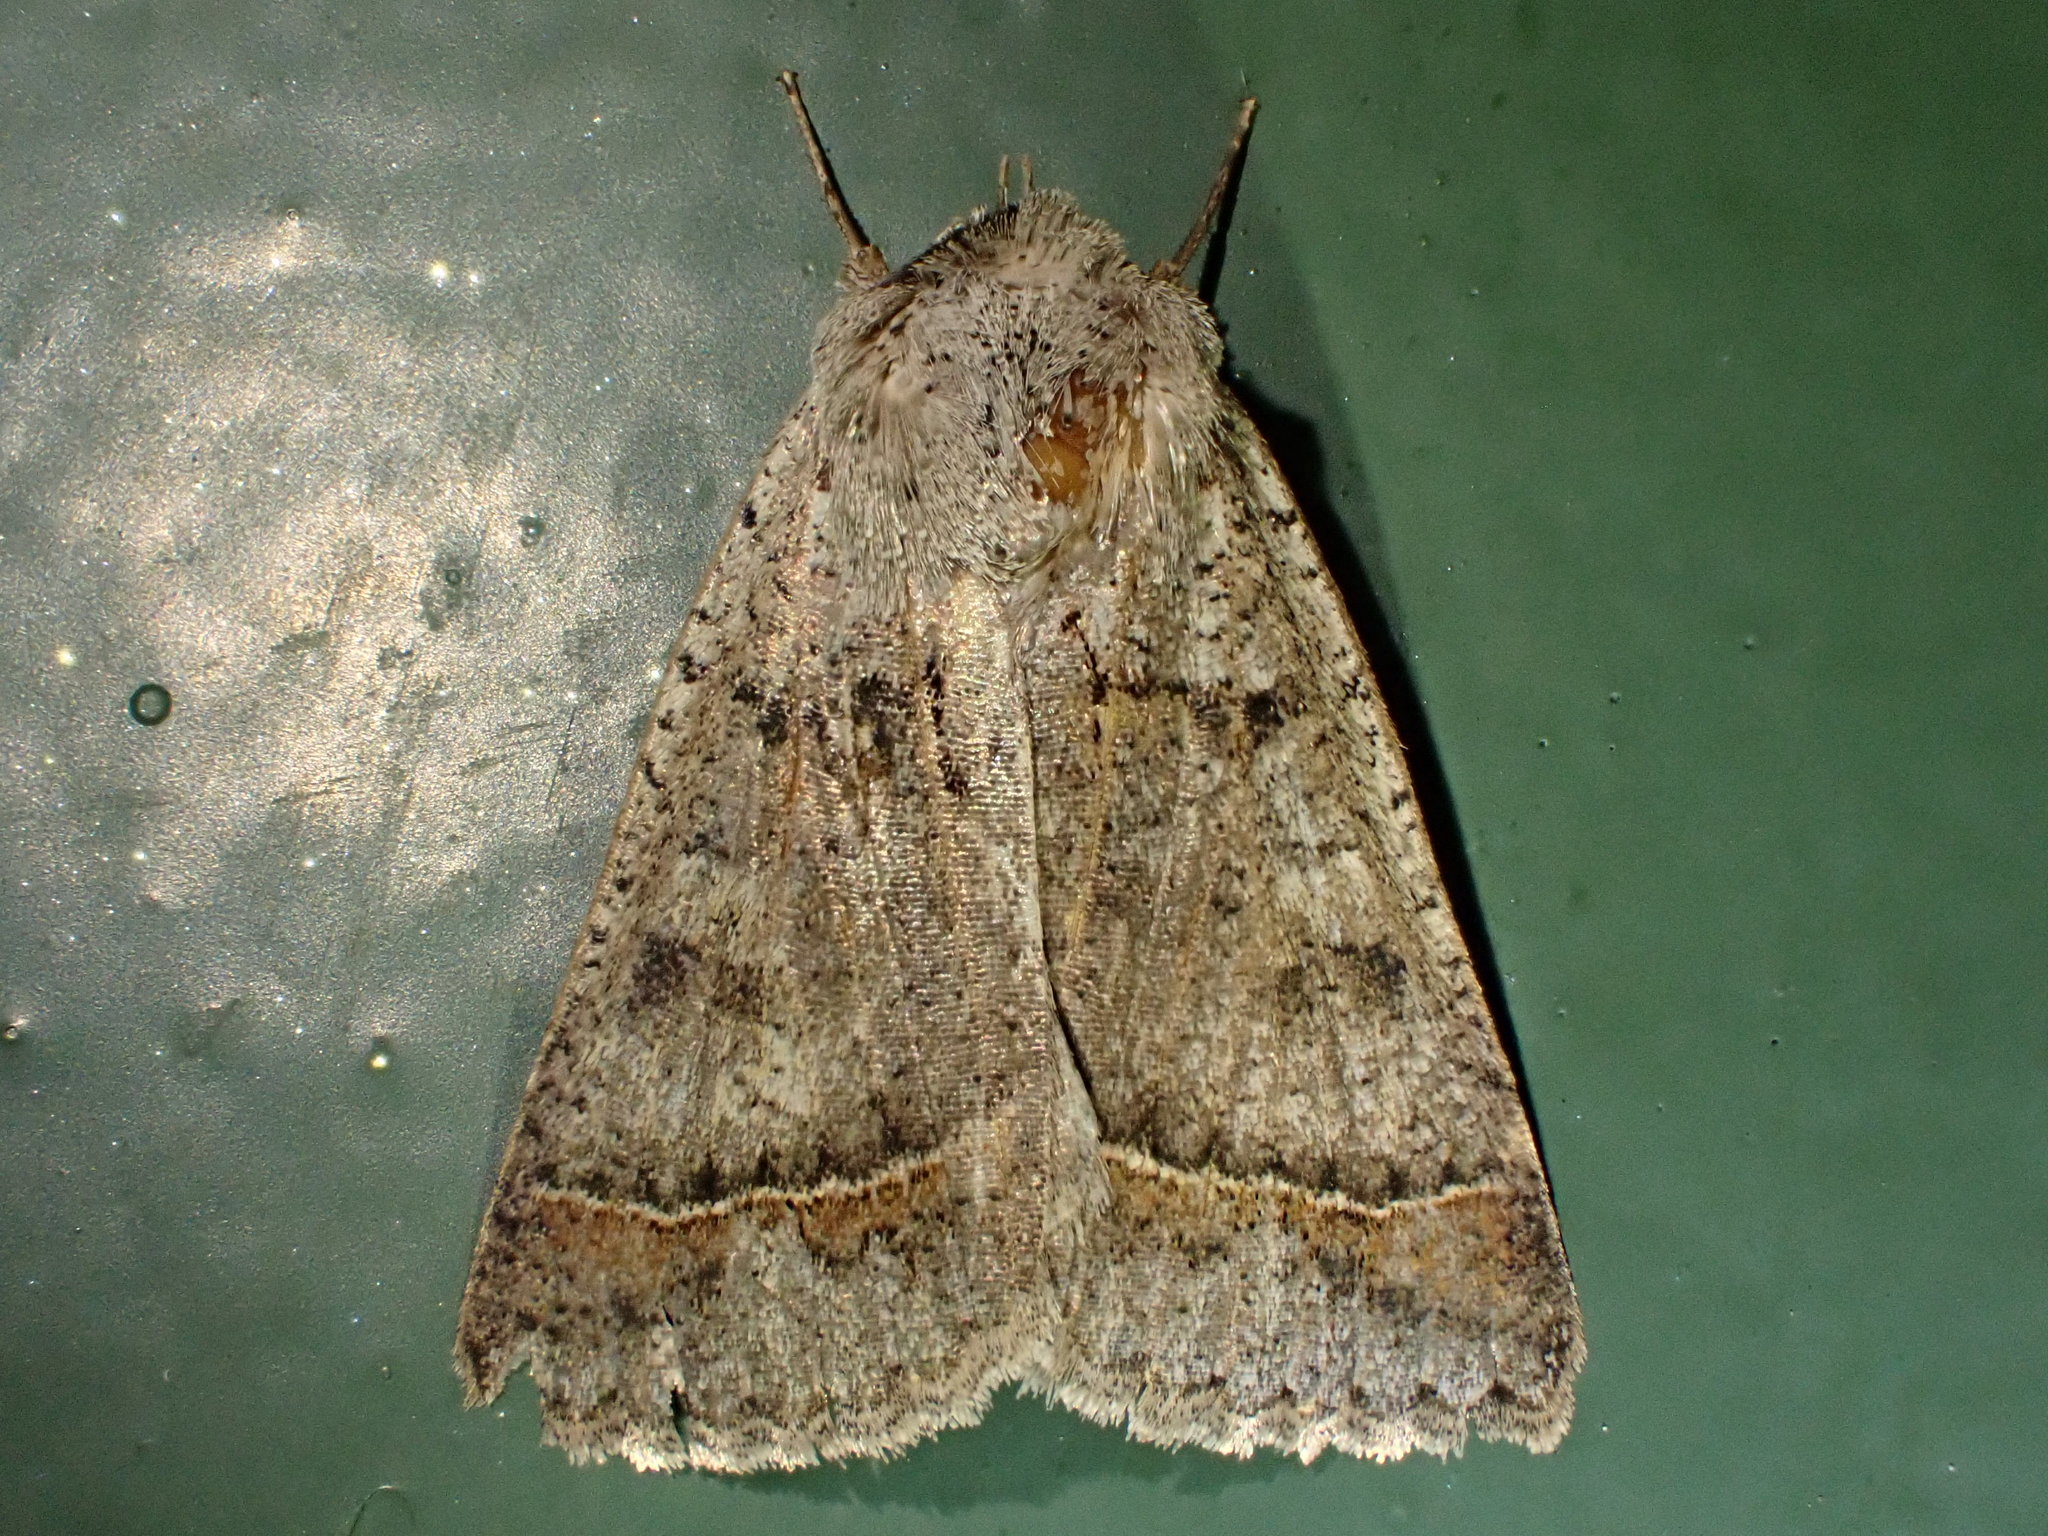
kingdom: Animalia
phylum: Arthropoda
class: Insecta
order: Lepidoptera
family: Erebidae
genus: Pantydia
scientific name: Pantydia sparsa
